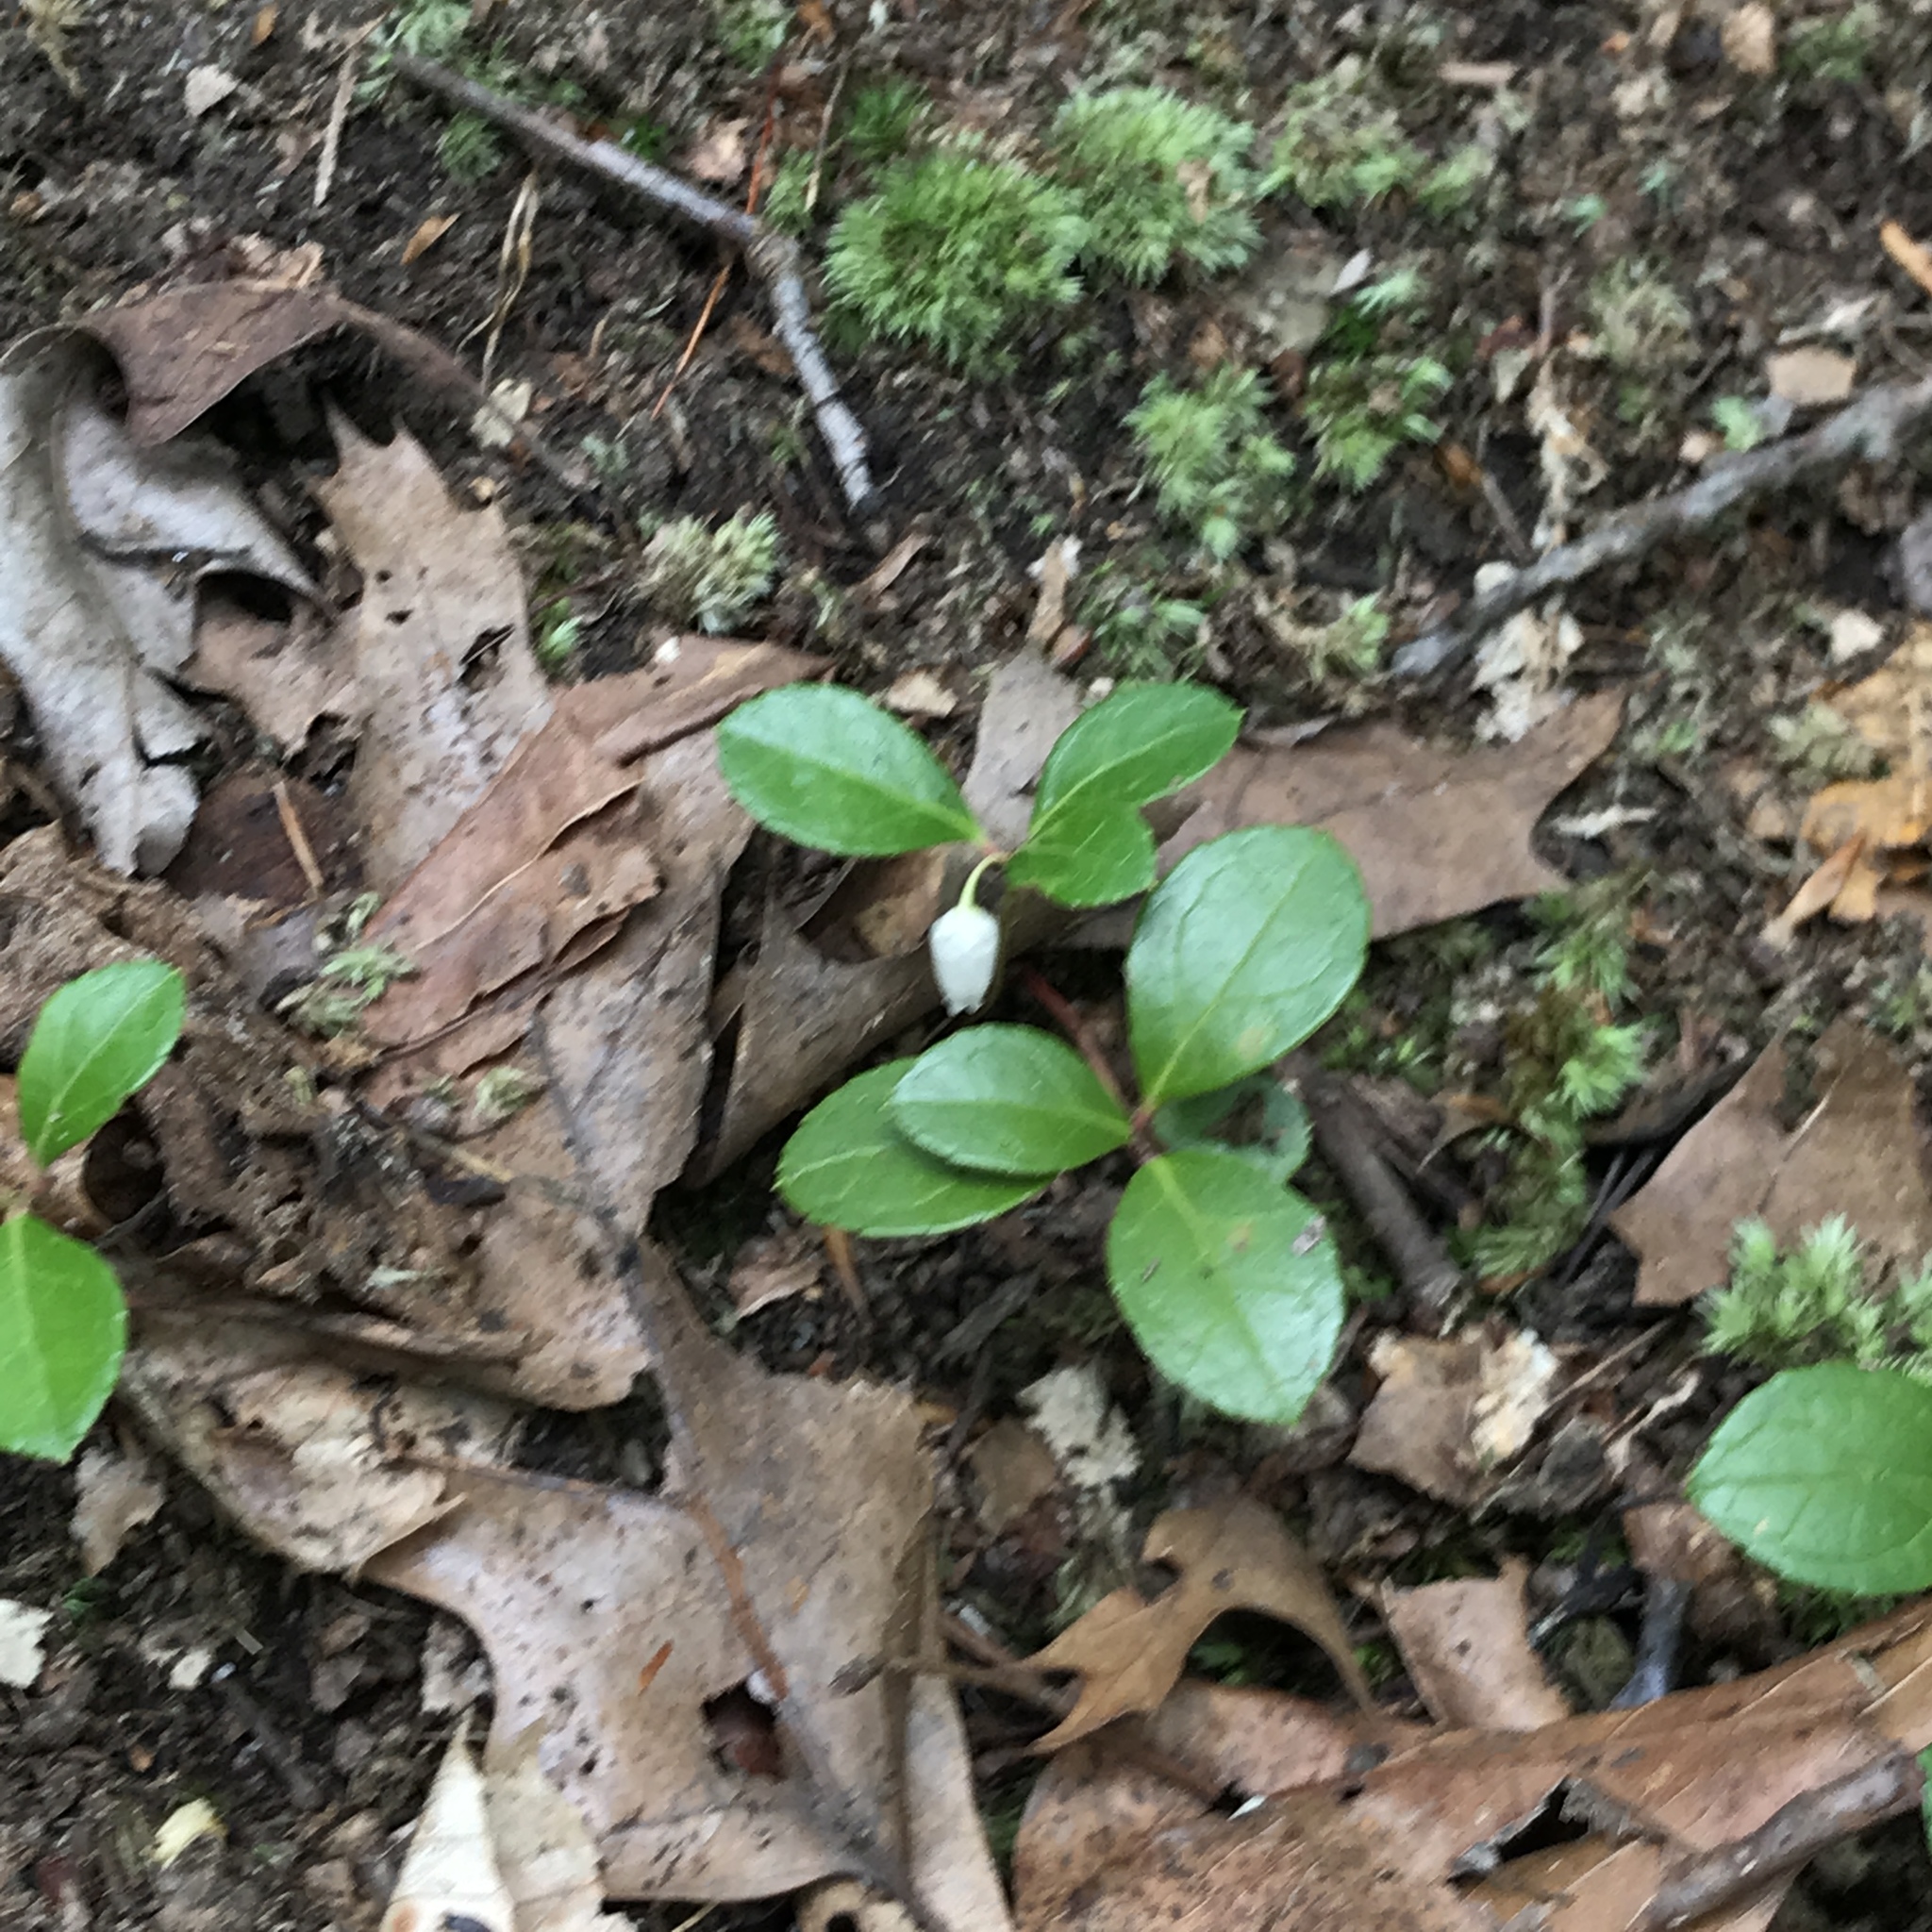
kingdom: Plantae
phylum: Tracheophyta
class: Magnoliopsida
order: Ericales
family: Ericaceae
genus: Gaultheria
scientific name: Gaultheria procumbens
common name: Checkerberry
